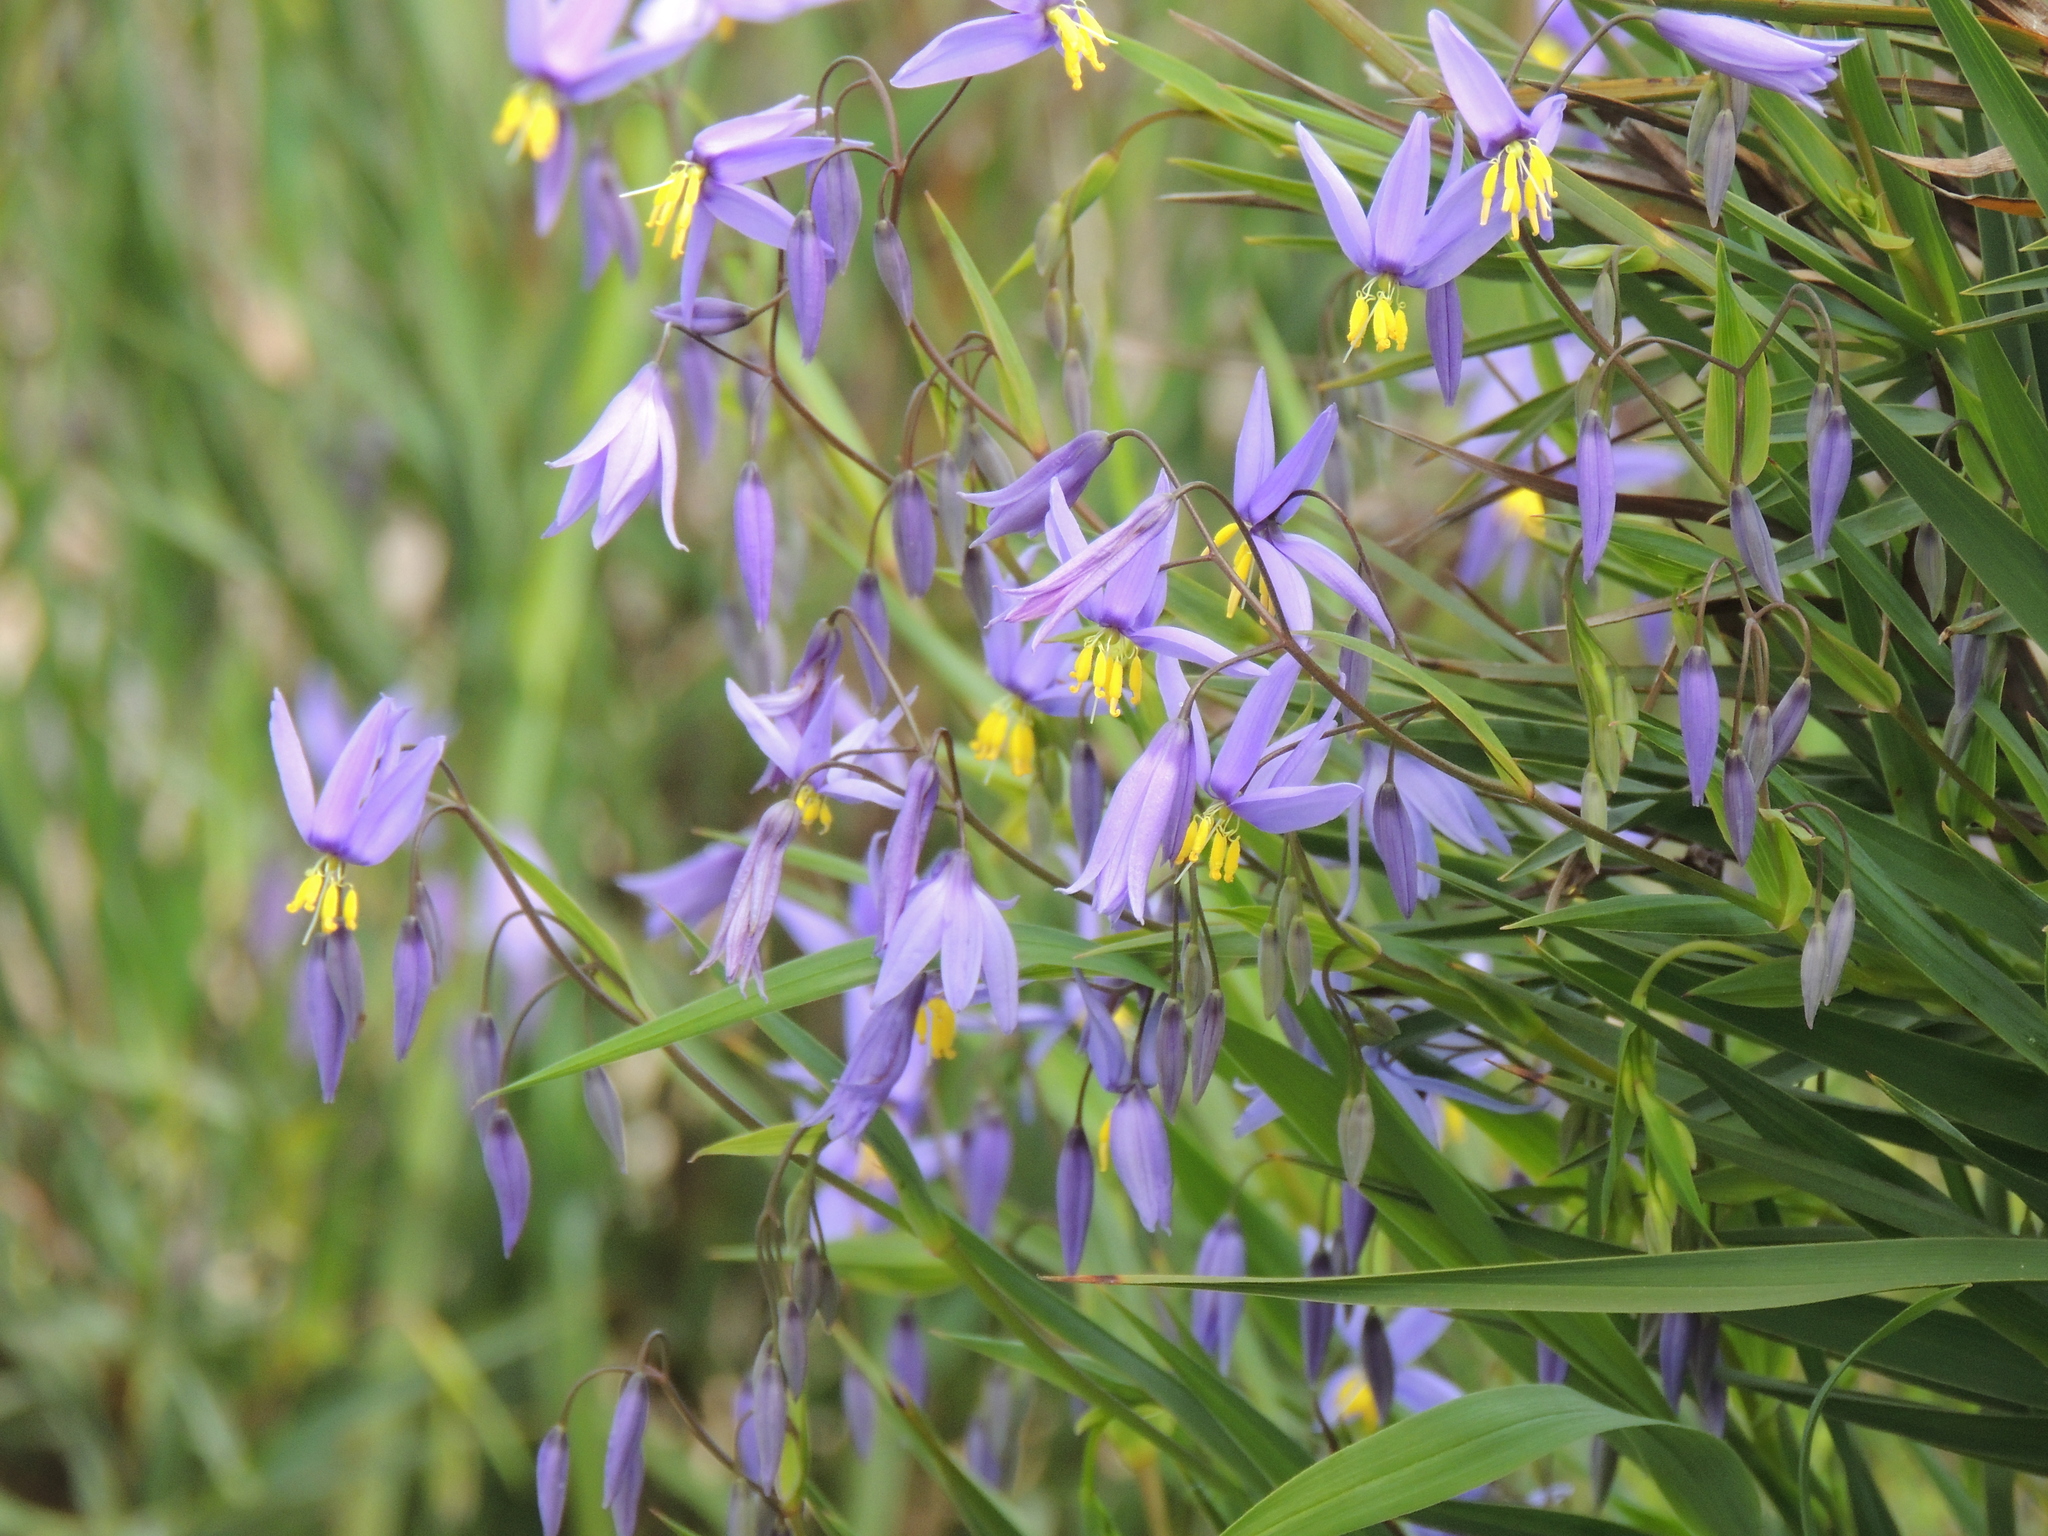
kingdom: Plantae
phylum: Tracheophyta
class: Liliopsida
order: Asparagales
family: Asphodelaceae
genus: Stypandra
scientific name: Stypandra glauca
